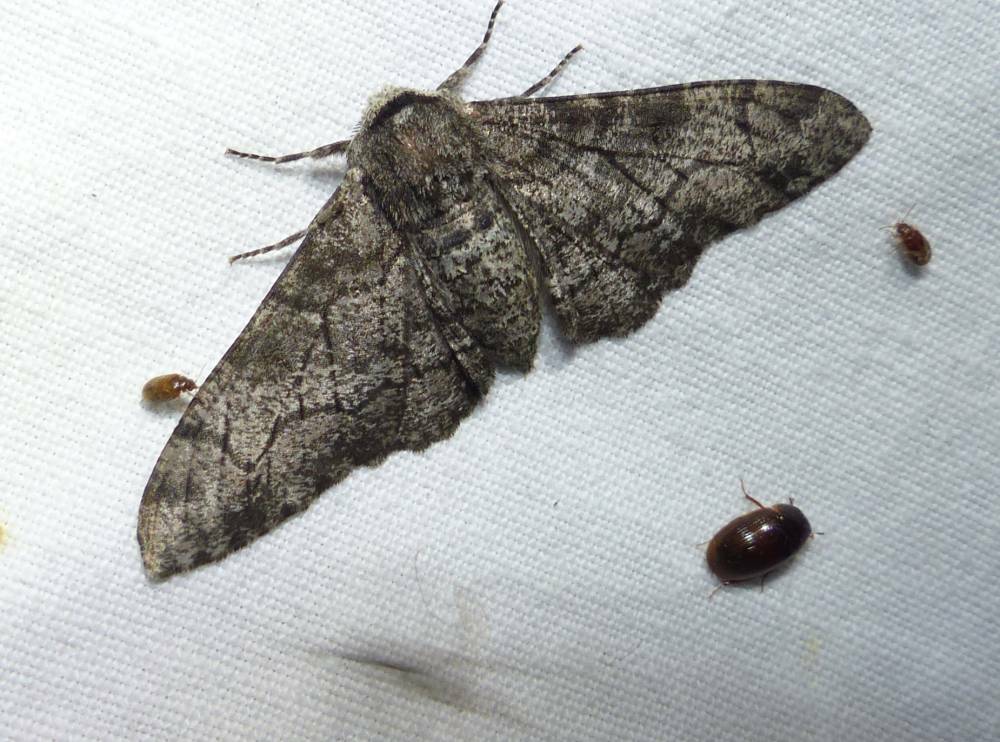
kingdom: Animalia
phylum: Arthropoda
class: Insecta
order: Lepidoptera
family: Geometridae
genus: Biston
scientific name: Biston betularia
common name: Peppered moth
